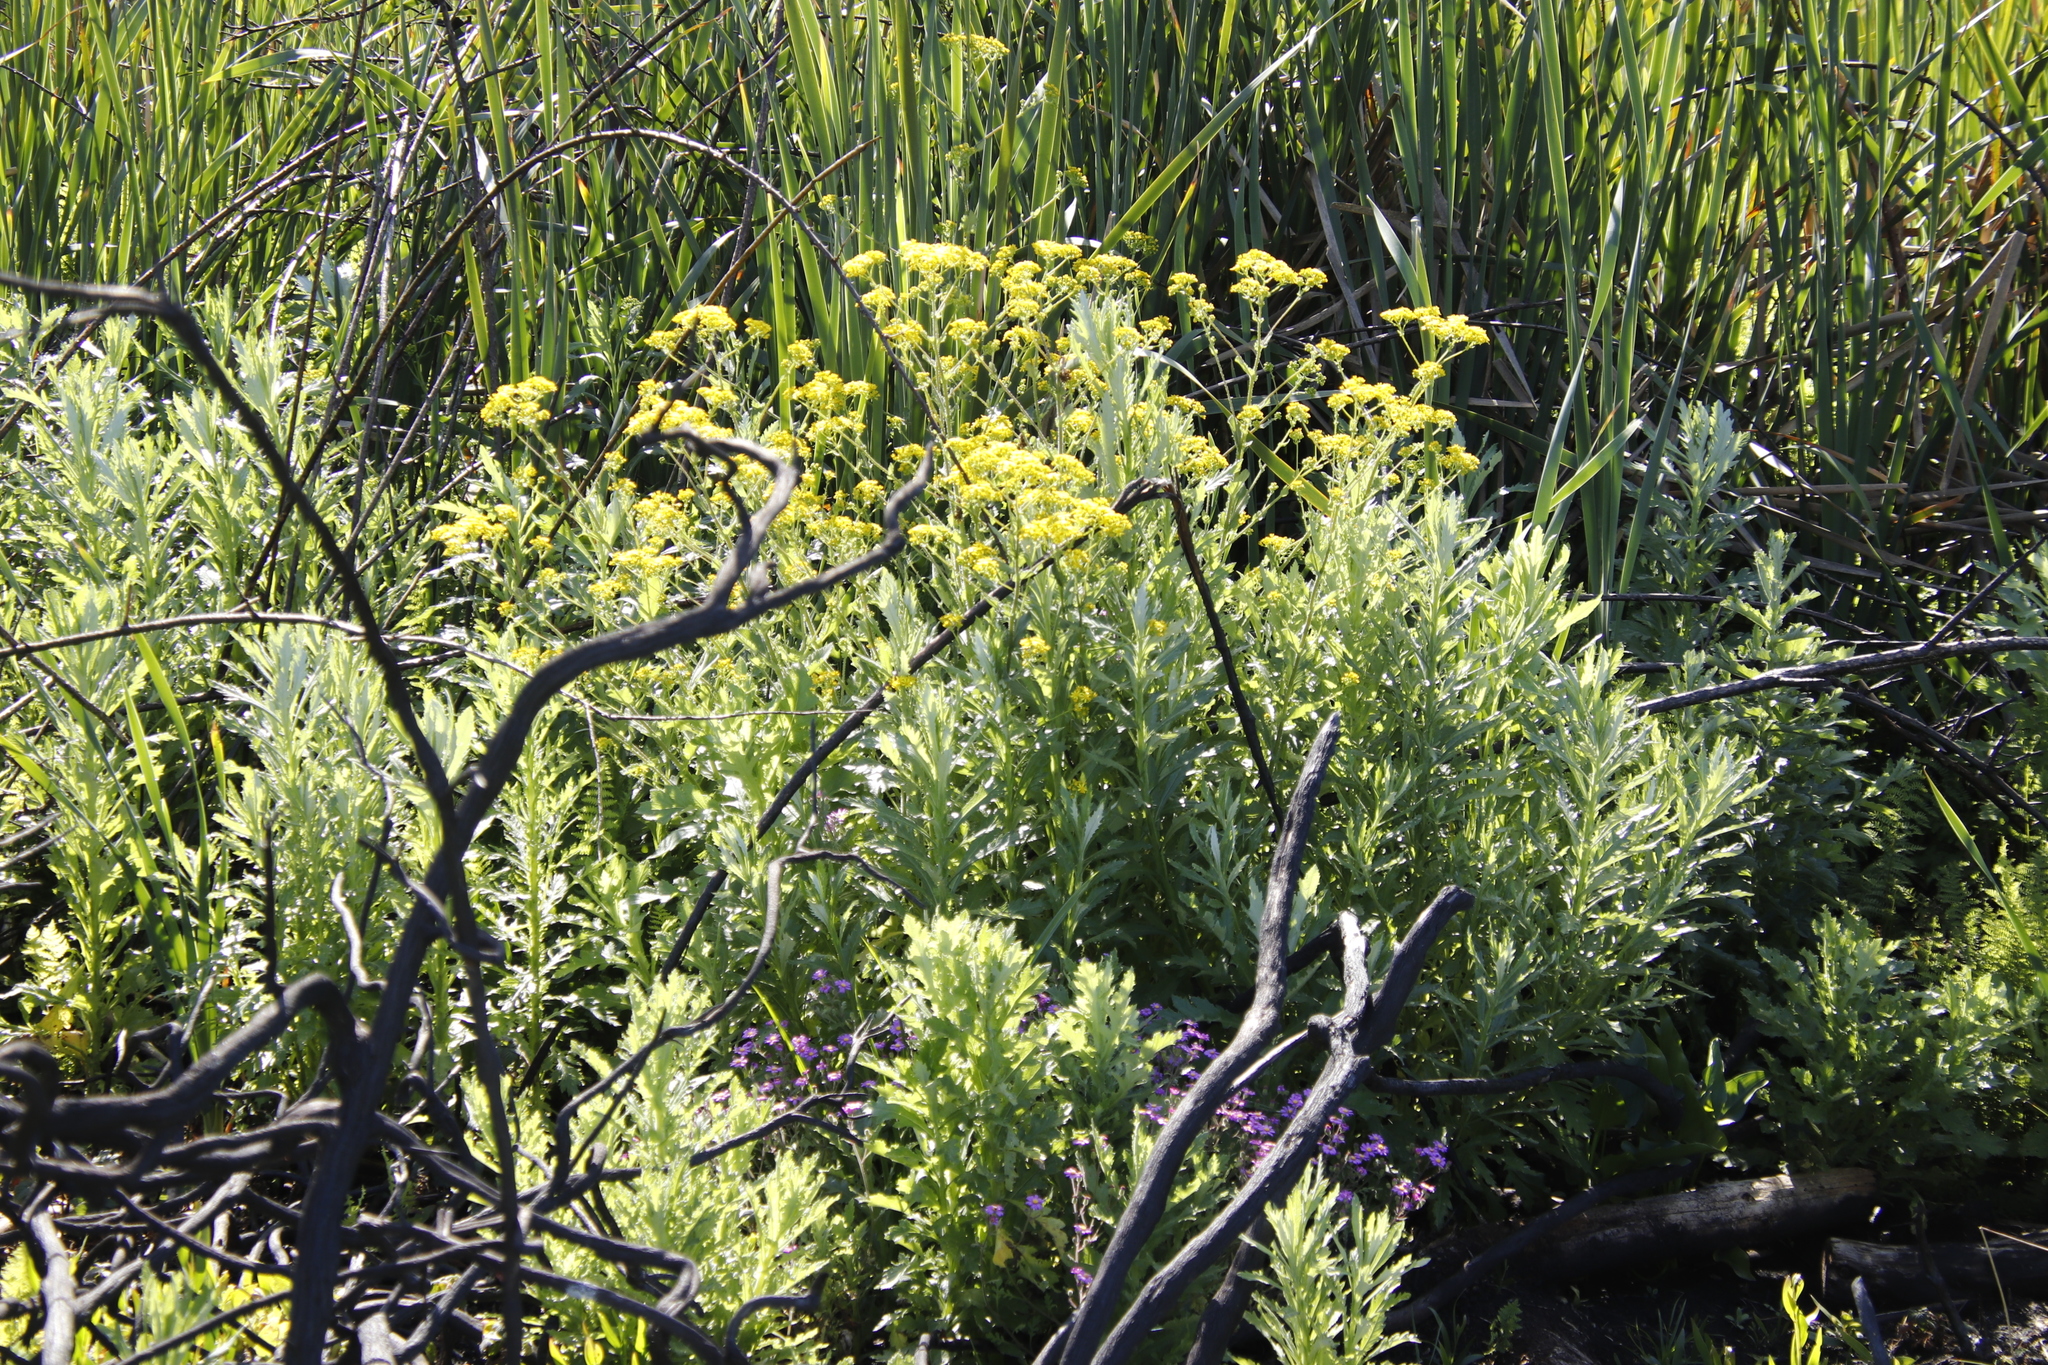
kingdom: Plantae
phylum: Tracheophyta
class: Magnoliopsida
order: Asterales
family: Asteraceae
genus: Senecio
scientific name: Senecio pterophorus
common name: Shoddy ragwort
